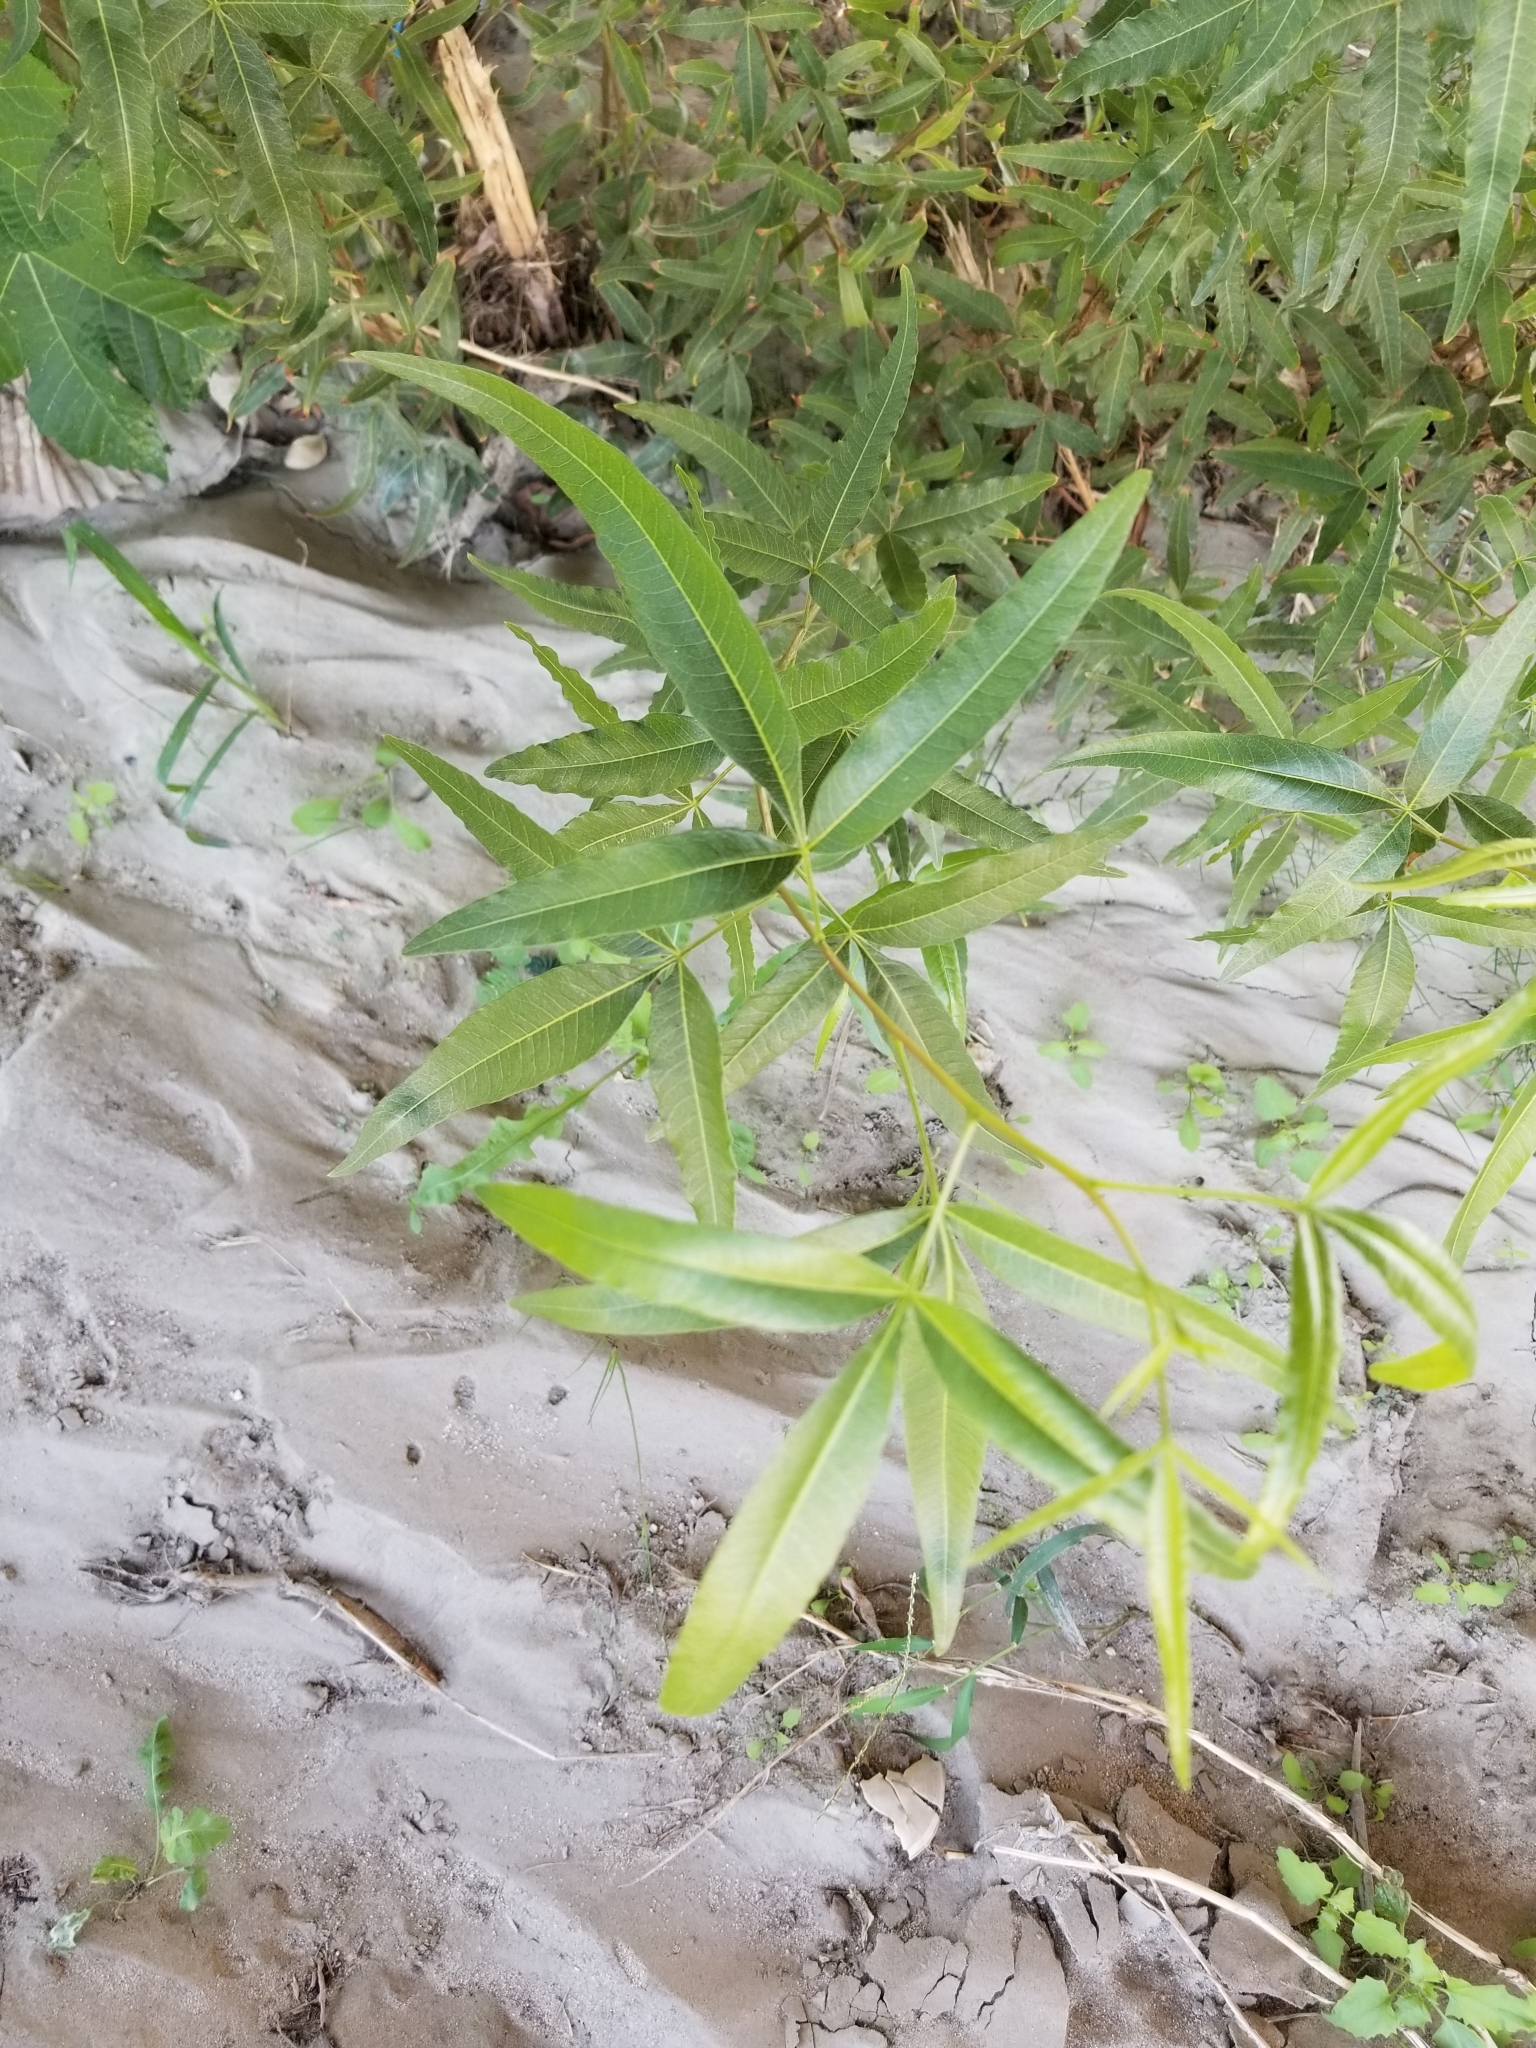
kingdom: Plantae
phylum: Tracheophyta
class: Magnoliopsida
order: Sapindales
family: Anacardiaceae
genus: Searsia
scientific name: Searsia lancea
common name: Cashew
